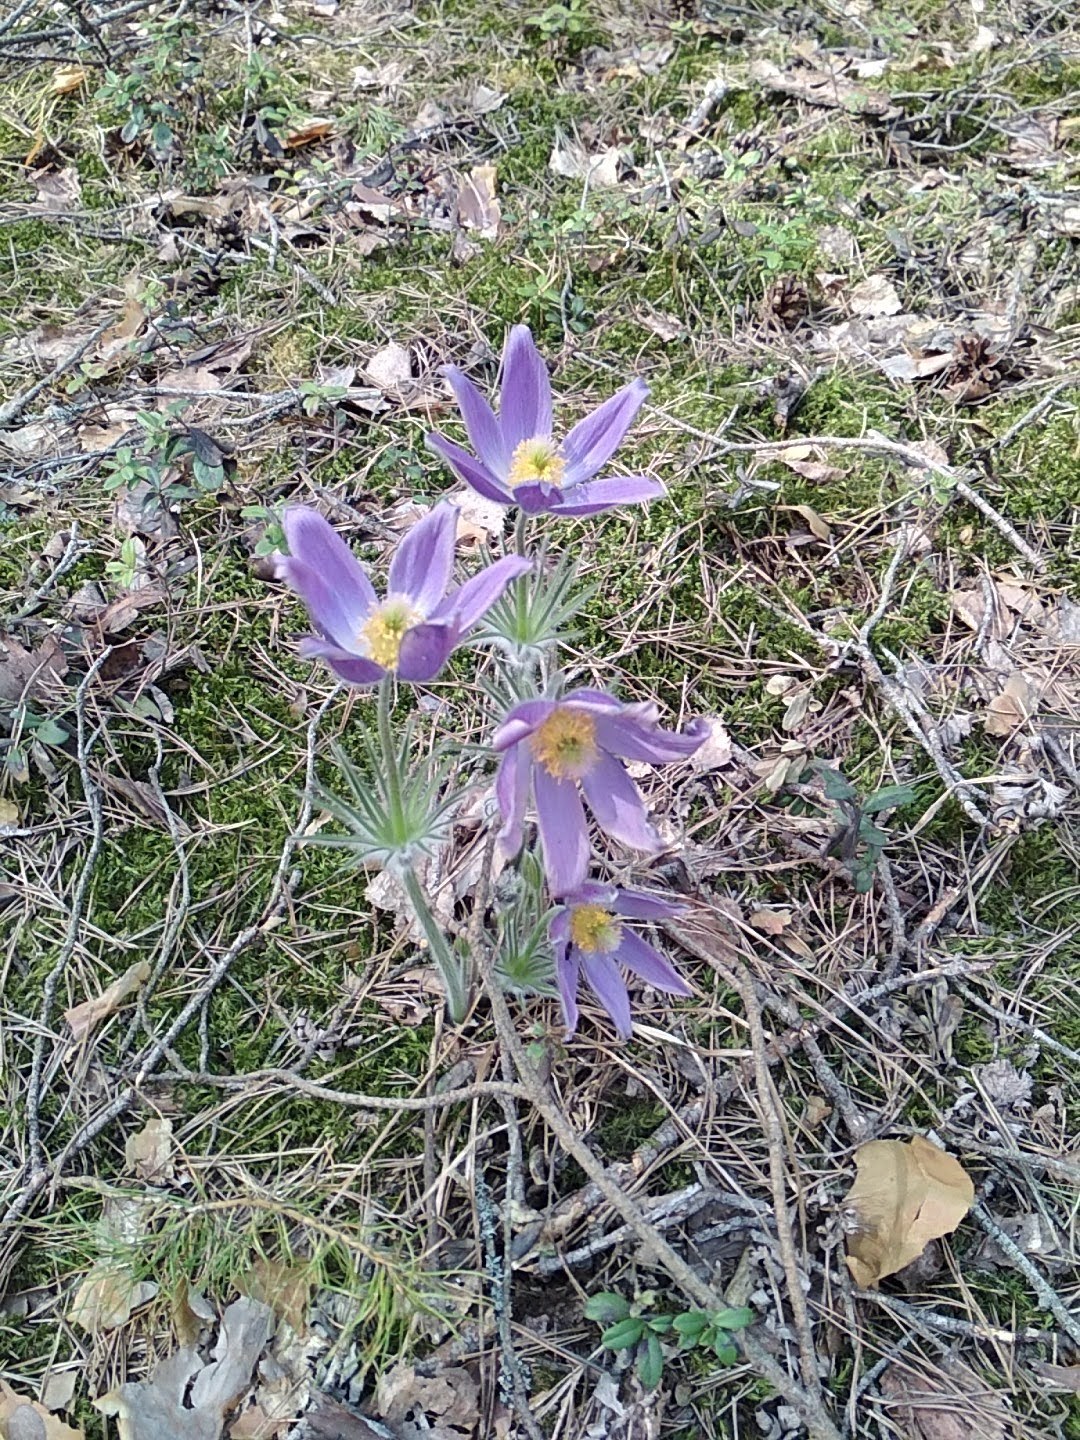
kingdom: Plantae
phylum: Tracheophyta
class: Magnoliopsida
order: Ranunculales
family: Ranunculaceae
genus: Pulsatilla
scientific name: Pulsatilla patens
